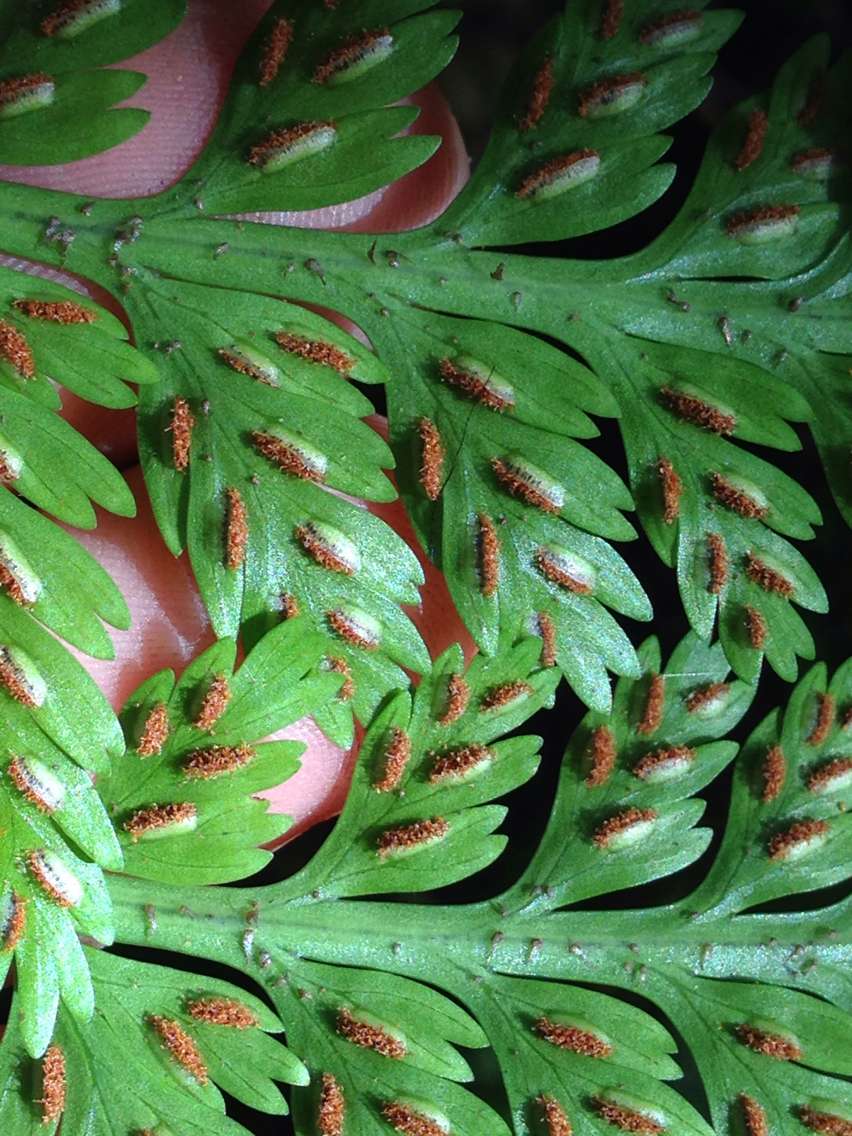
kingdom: Plantae
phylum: Tracheophyta
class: Polypodiopsida
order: Polypodiales
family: Aspleniaceae
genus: Asplenium
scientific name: Asplenium bulbiferum
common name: Mother fern
